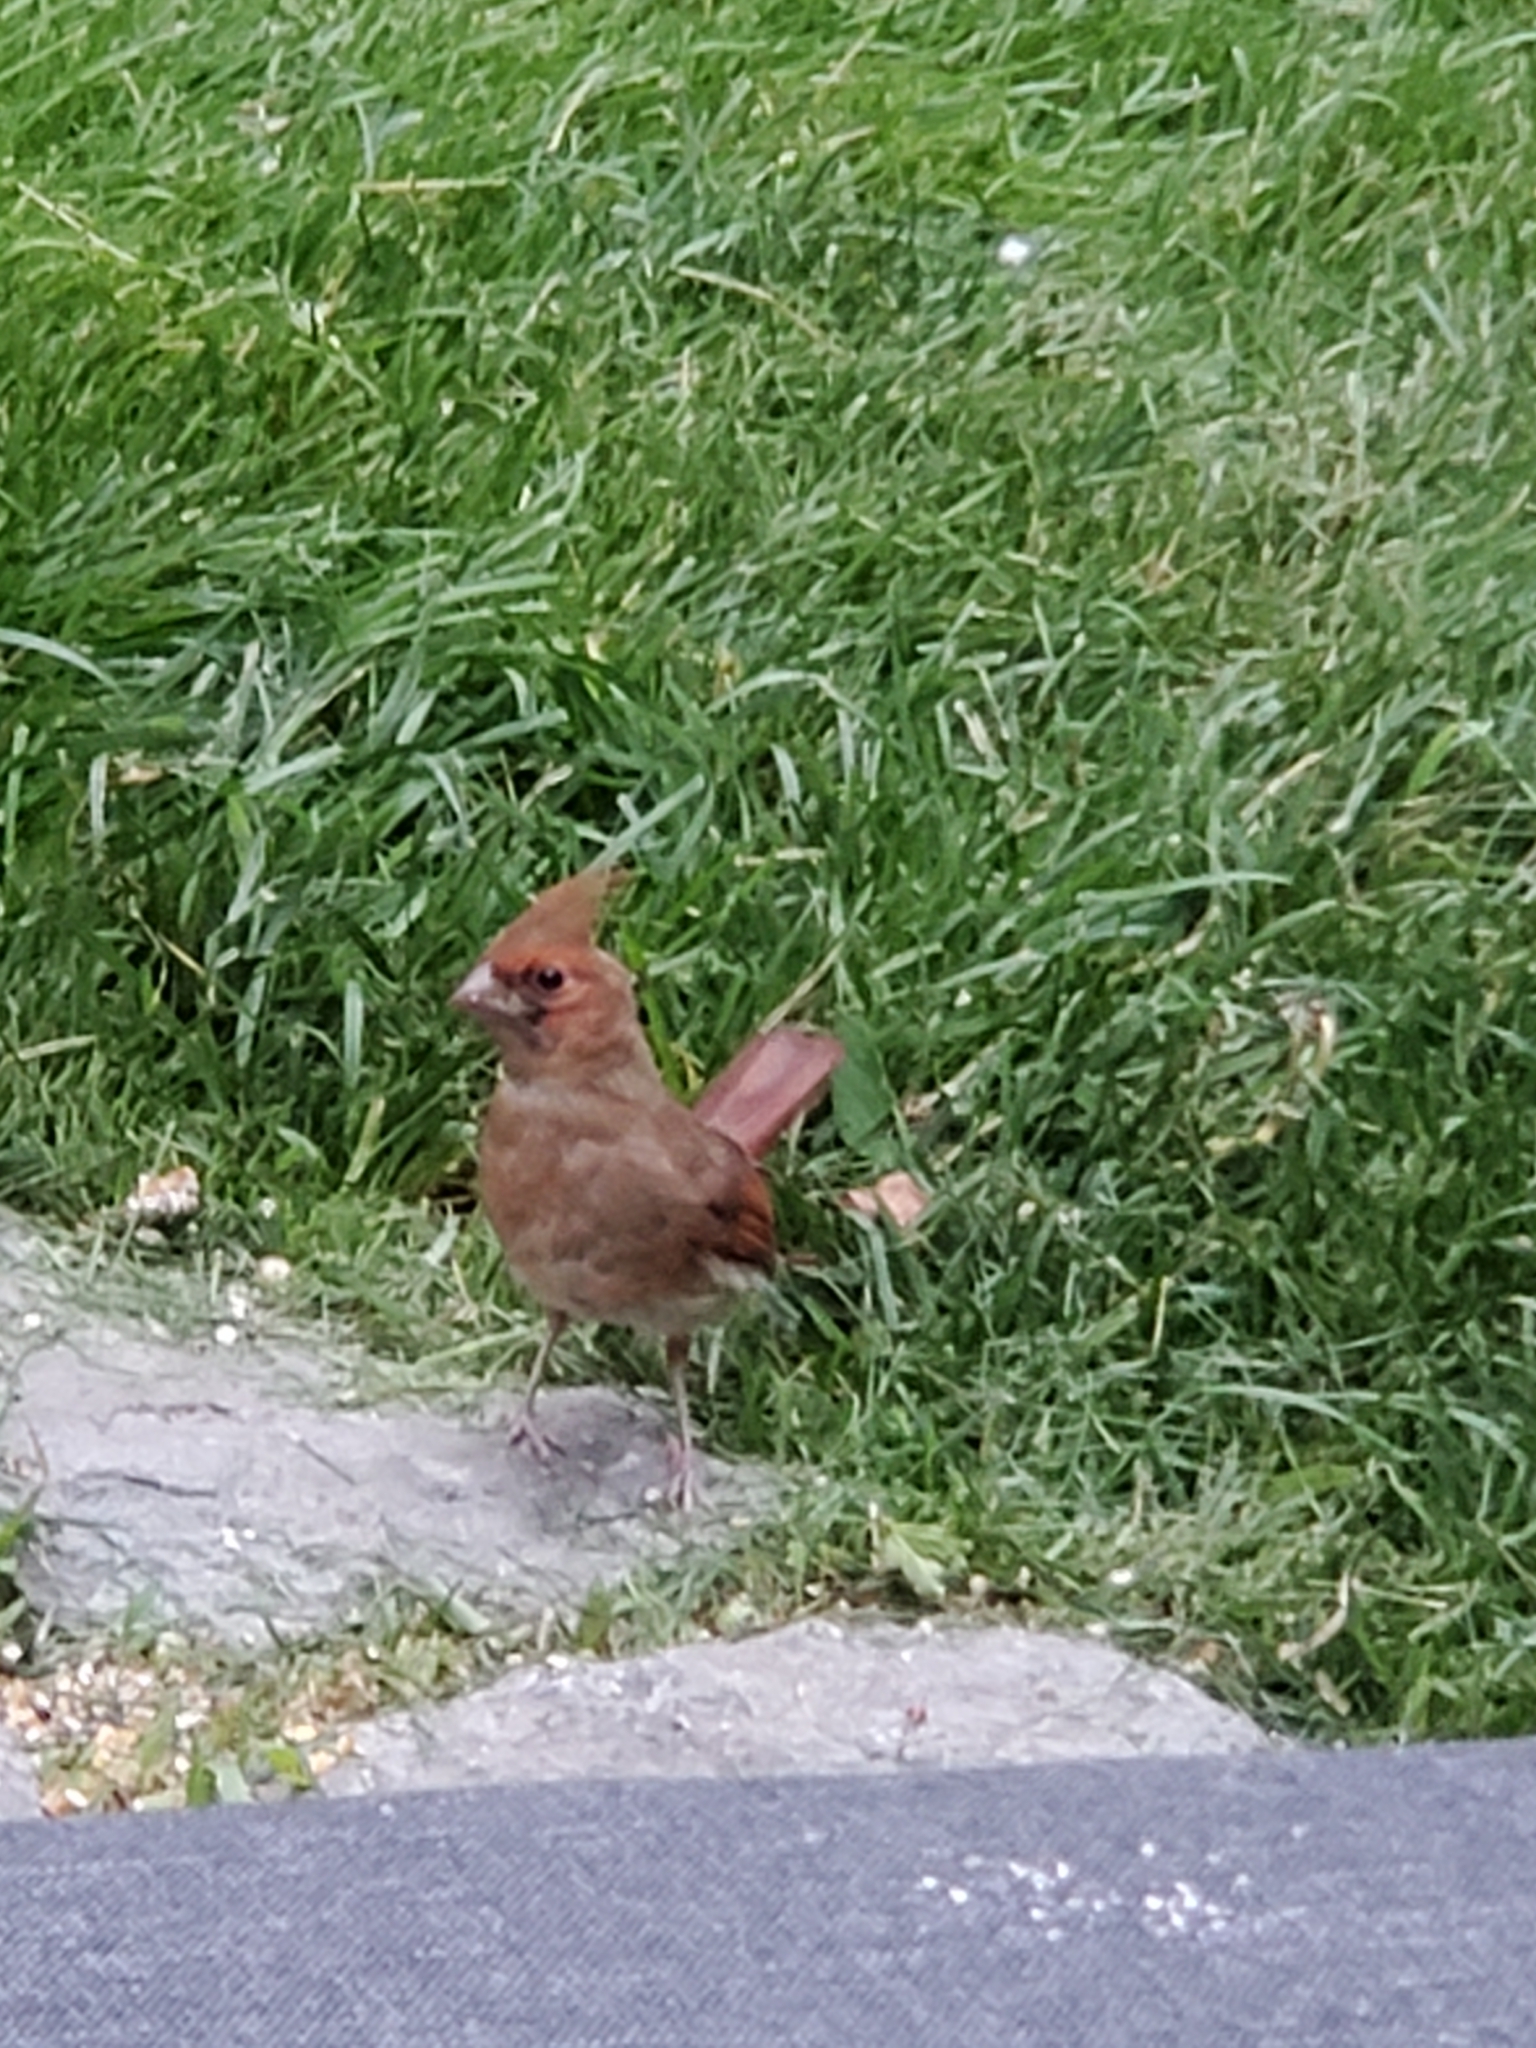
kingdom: Animalia
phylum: Chordata
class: Aves
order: Passeriformes
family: Cardinalidae
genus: Cardinalis
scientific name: Cardinalis cardinalis
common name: Northern cardinal
